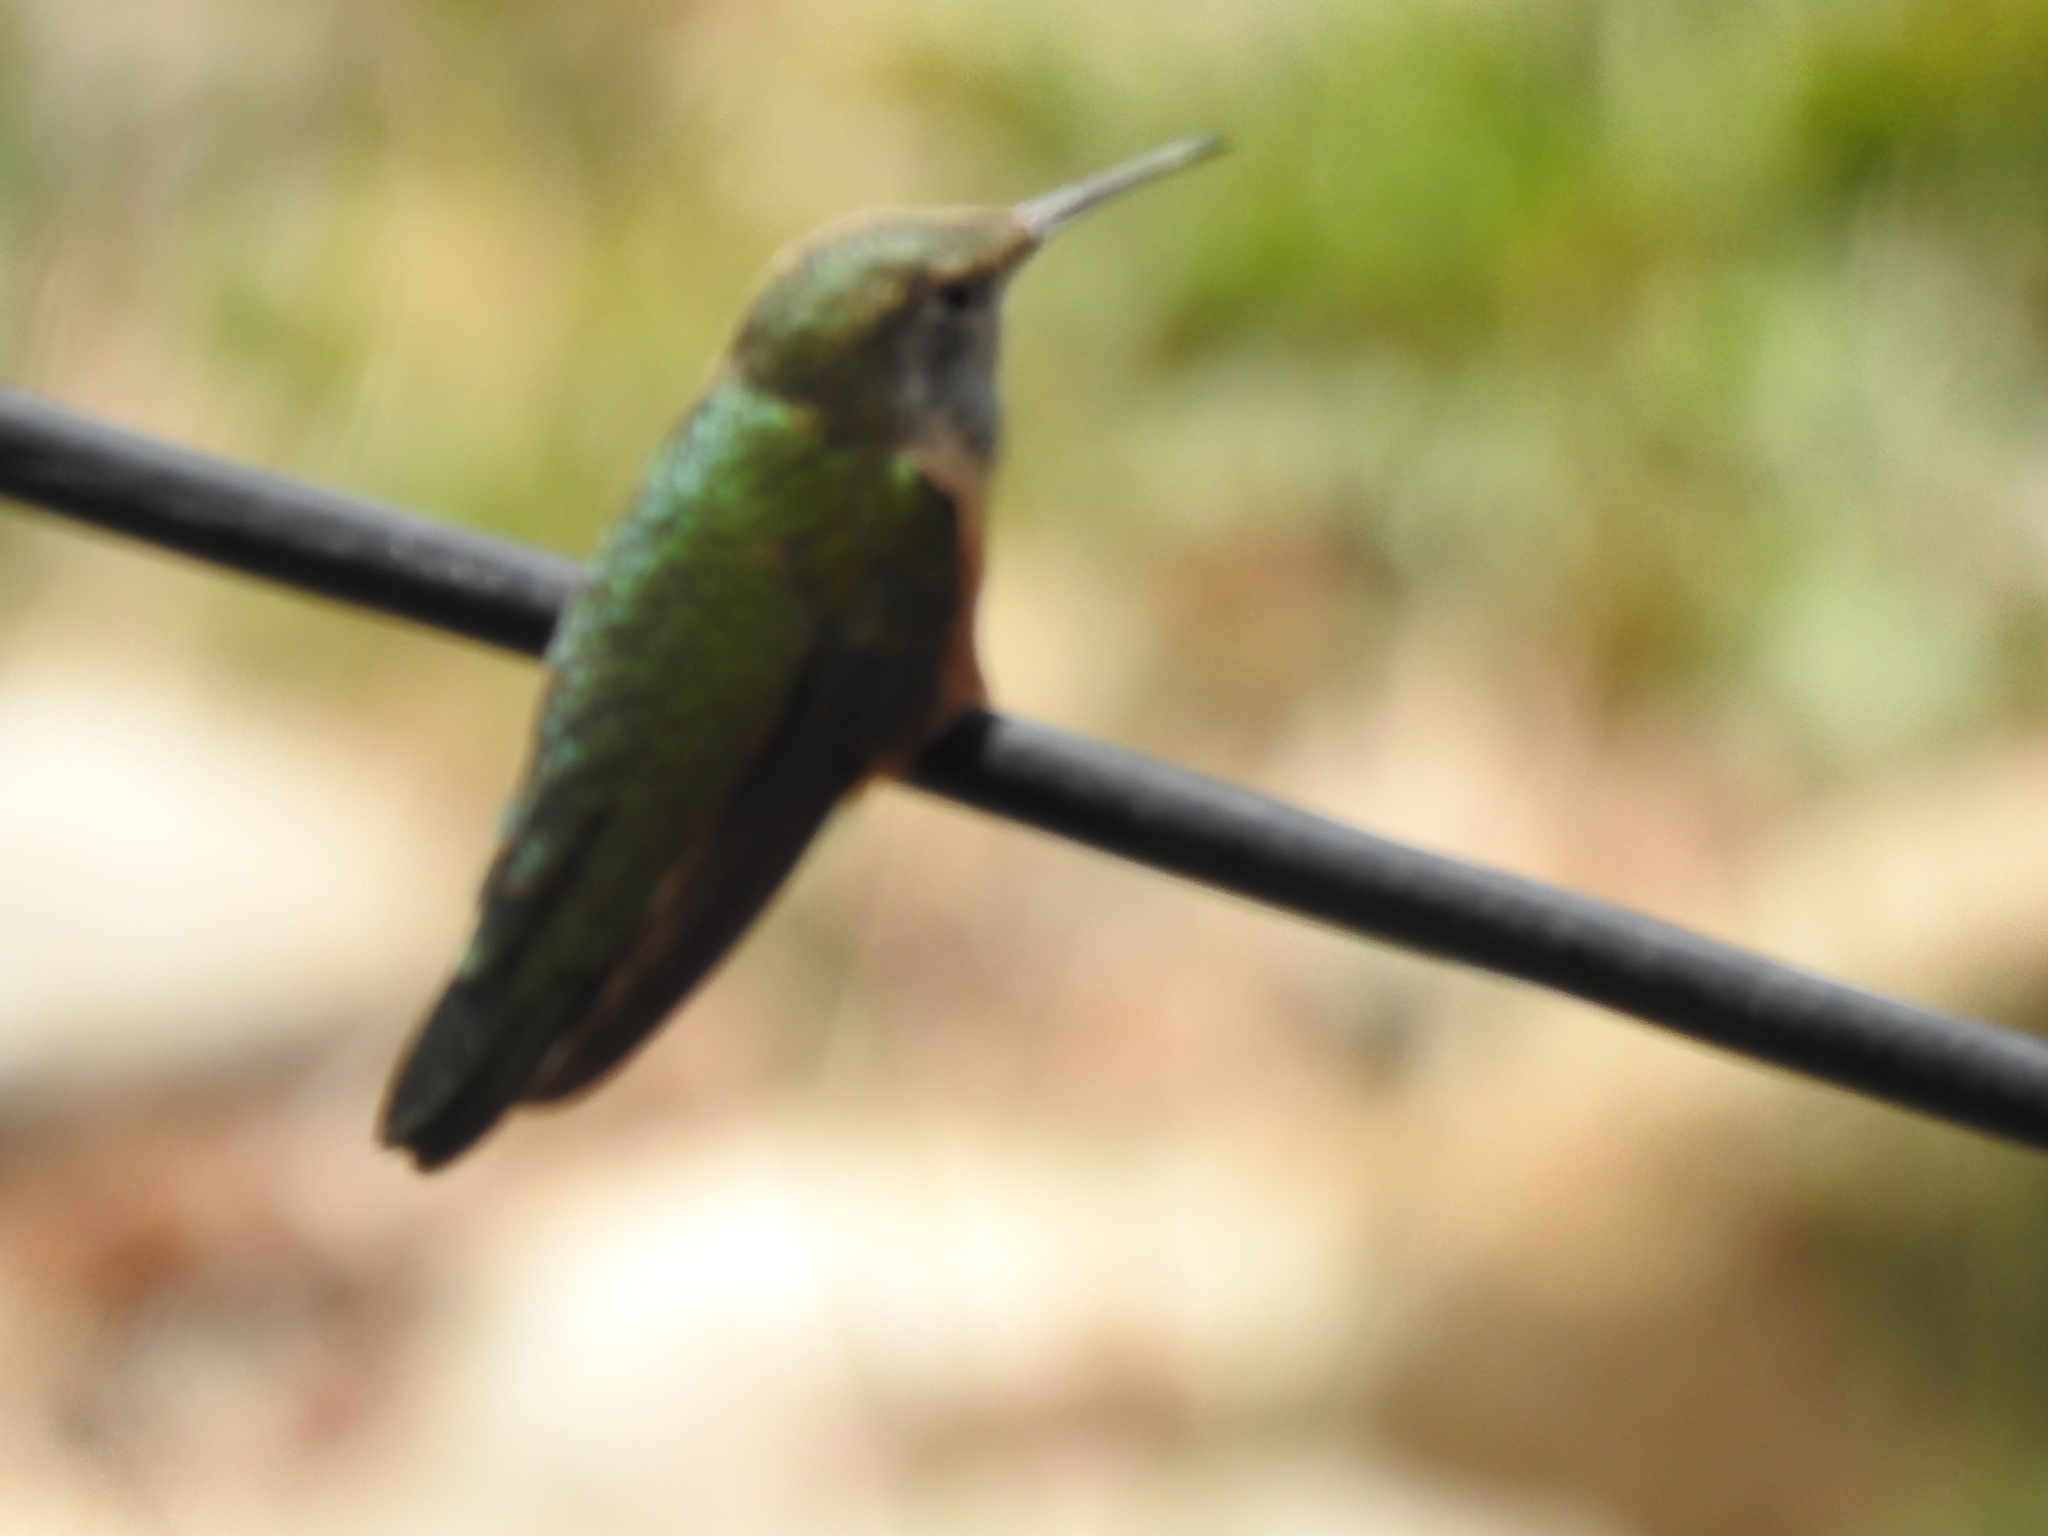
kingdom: Animalia
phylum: Chordata
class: Aves
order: Apodiformes
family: Trochilidae
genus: Selasphorus
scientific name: Selasphorus platycercus
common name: Broad-tailed hummingbird
